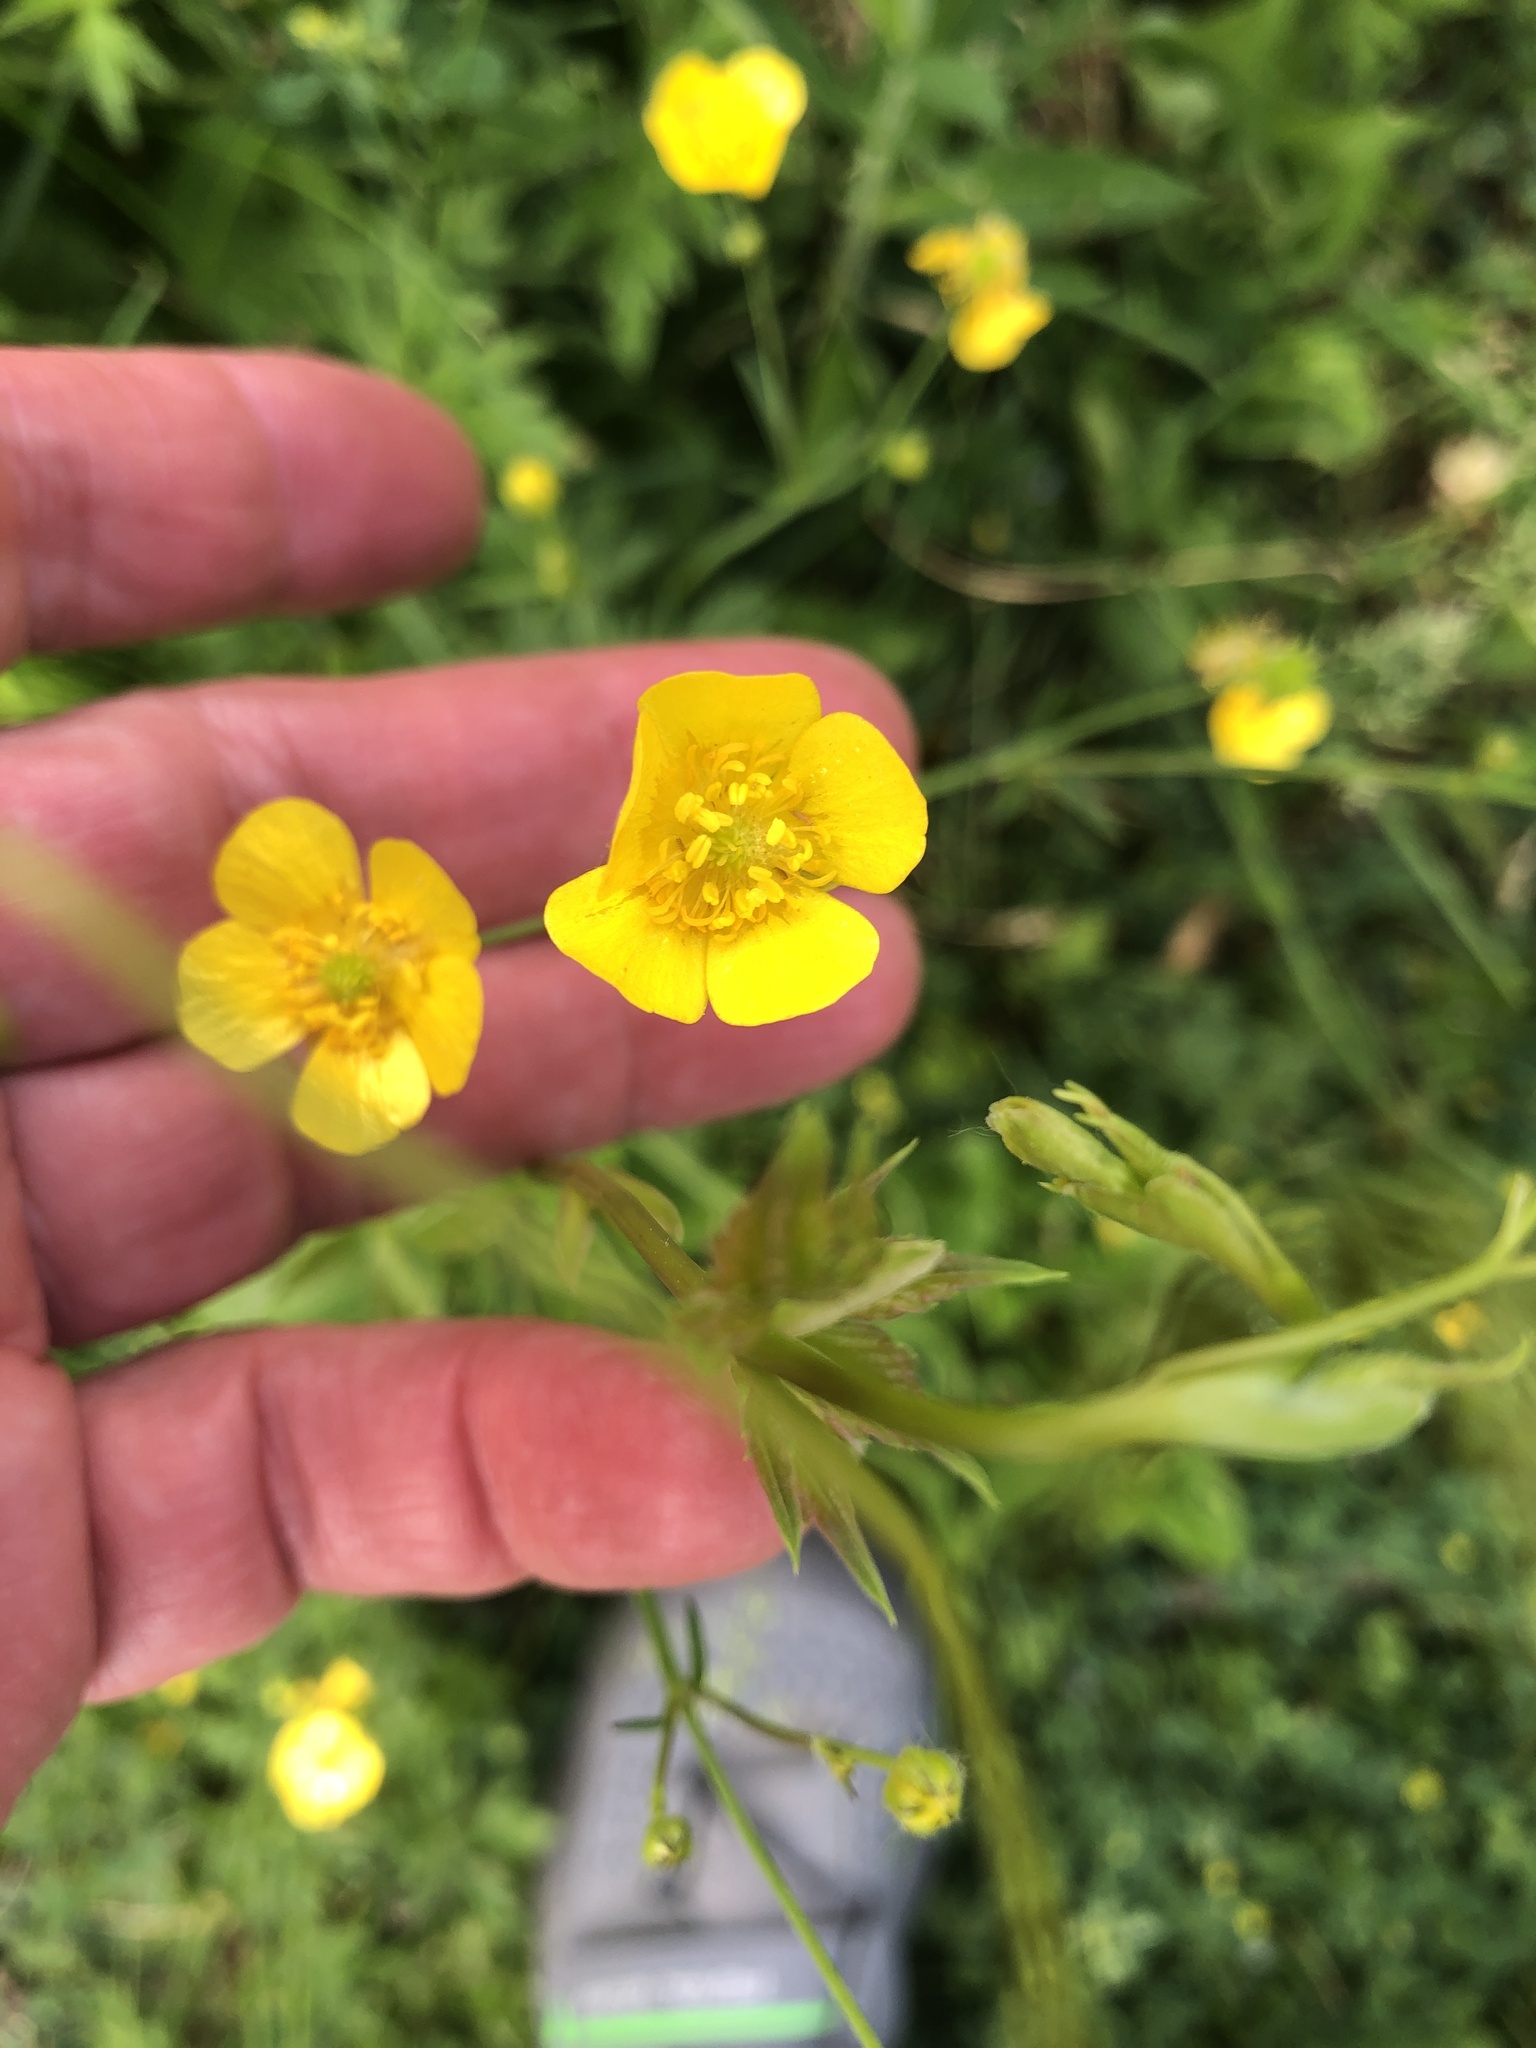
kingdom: Plantae
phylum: Tracheophyta
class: Magnoliopsida
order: Ranunculales
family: Ranunculaceae
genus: Ranunculus
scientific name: Ranunculus acris
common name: Meadow buttercup
